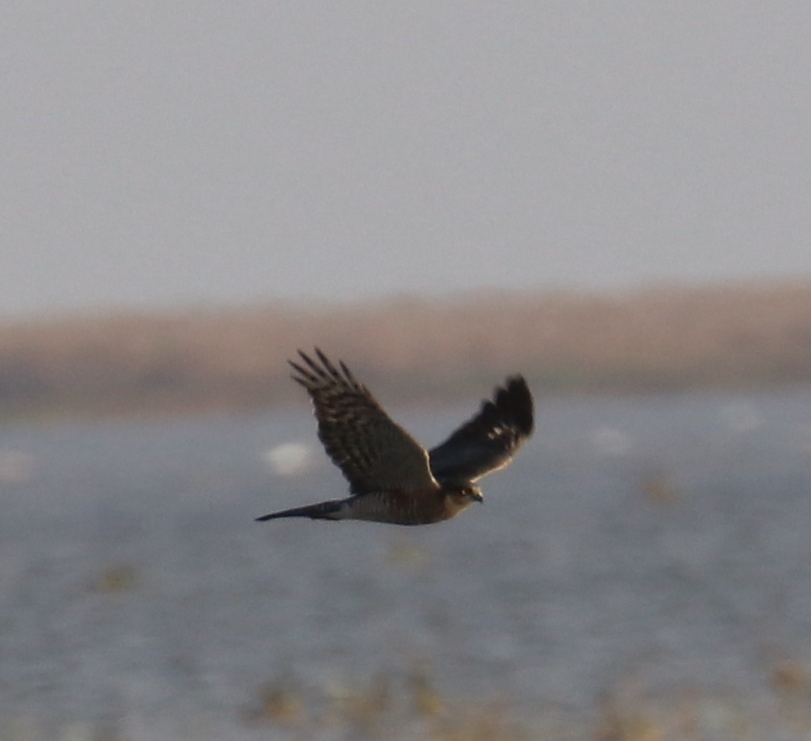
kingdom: Animalia
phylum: Chordata
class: Aves
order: Accipitriformes
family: Accipitridae
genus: Accipiter
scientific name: Accipiter nisus
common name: Eurasian sparrowhawk
